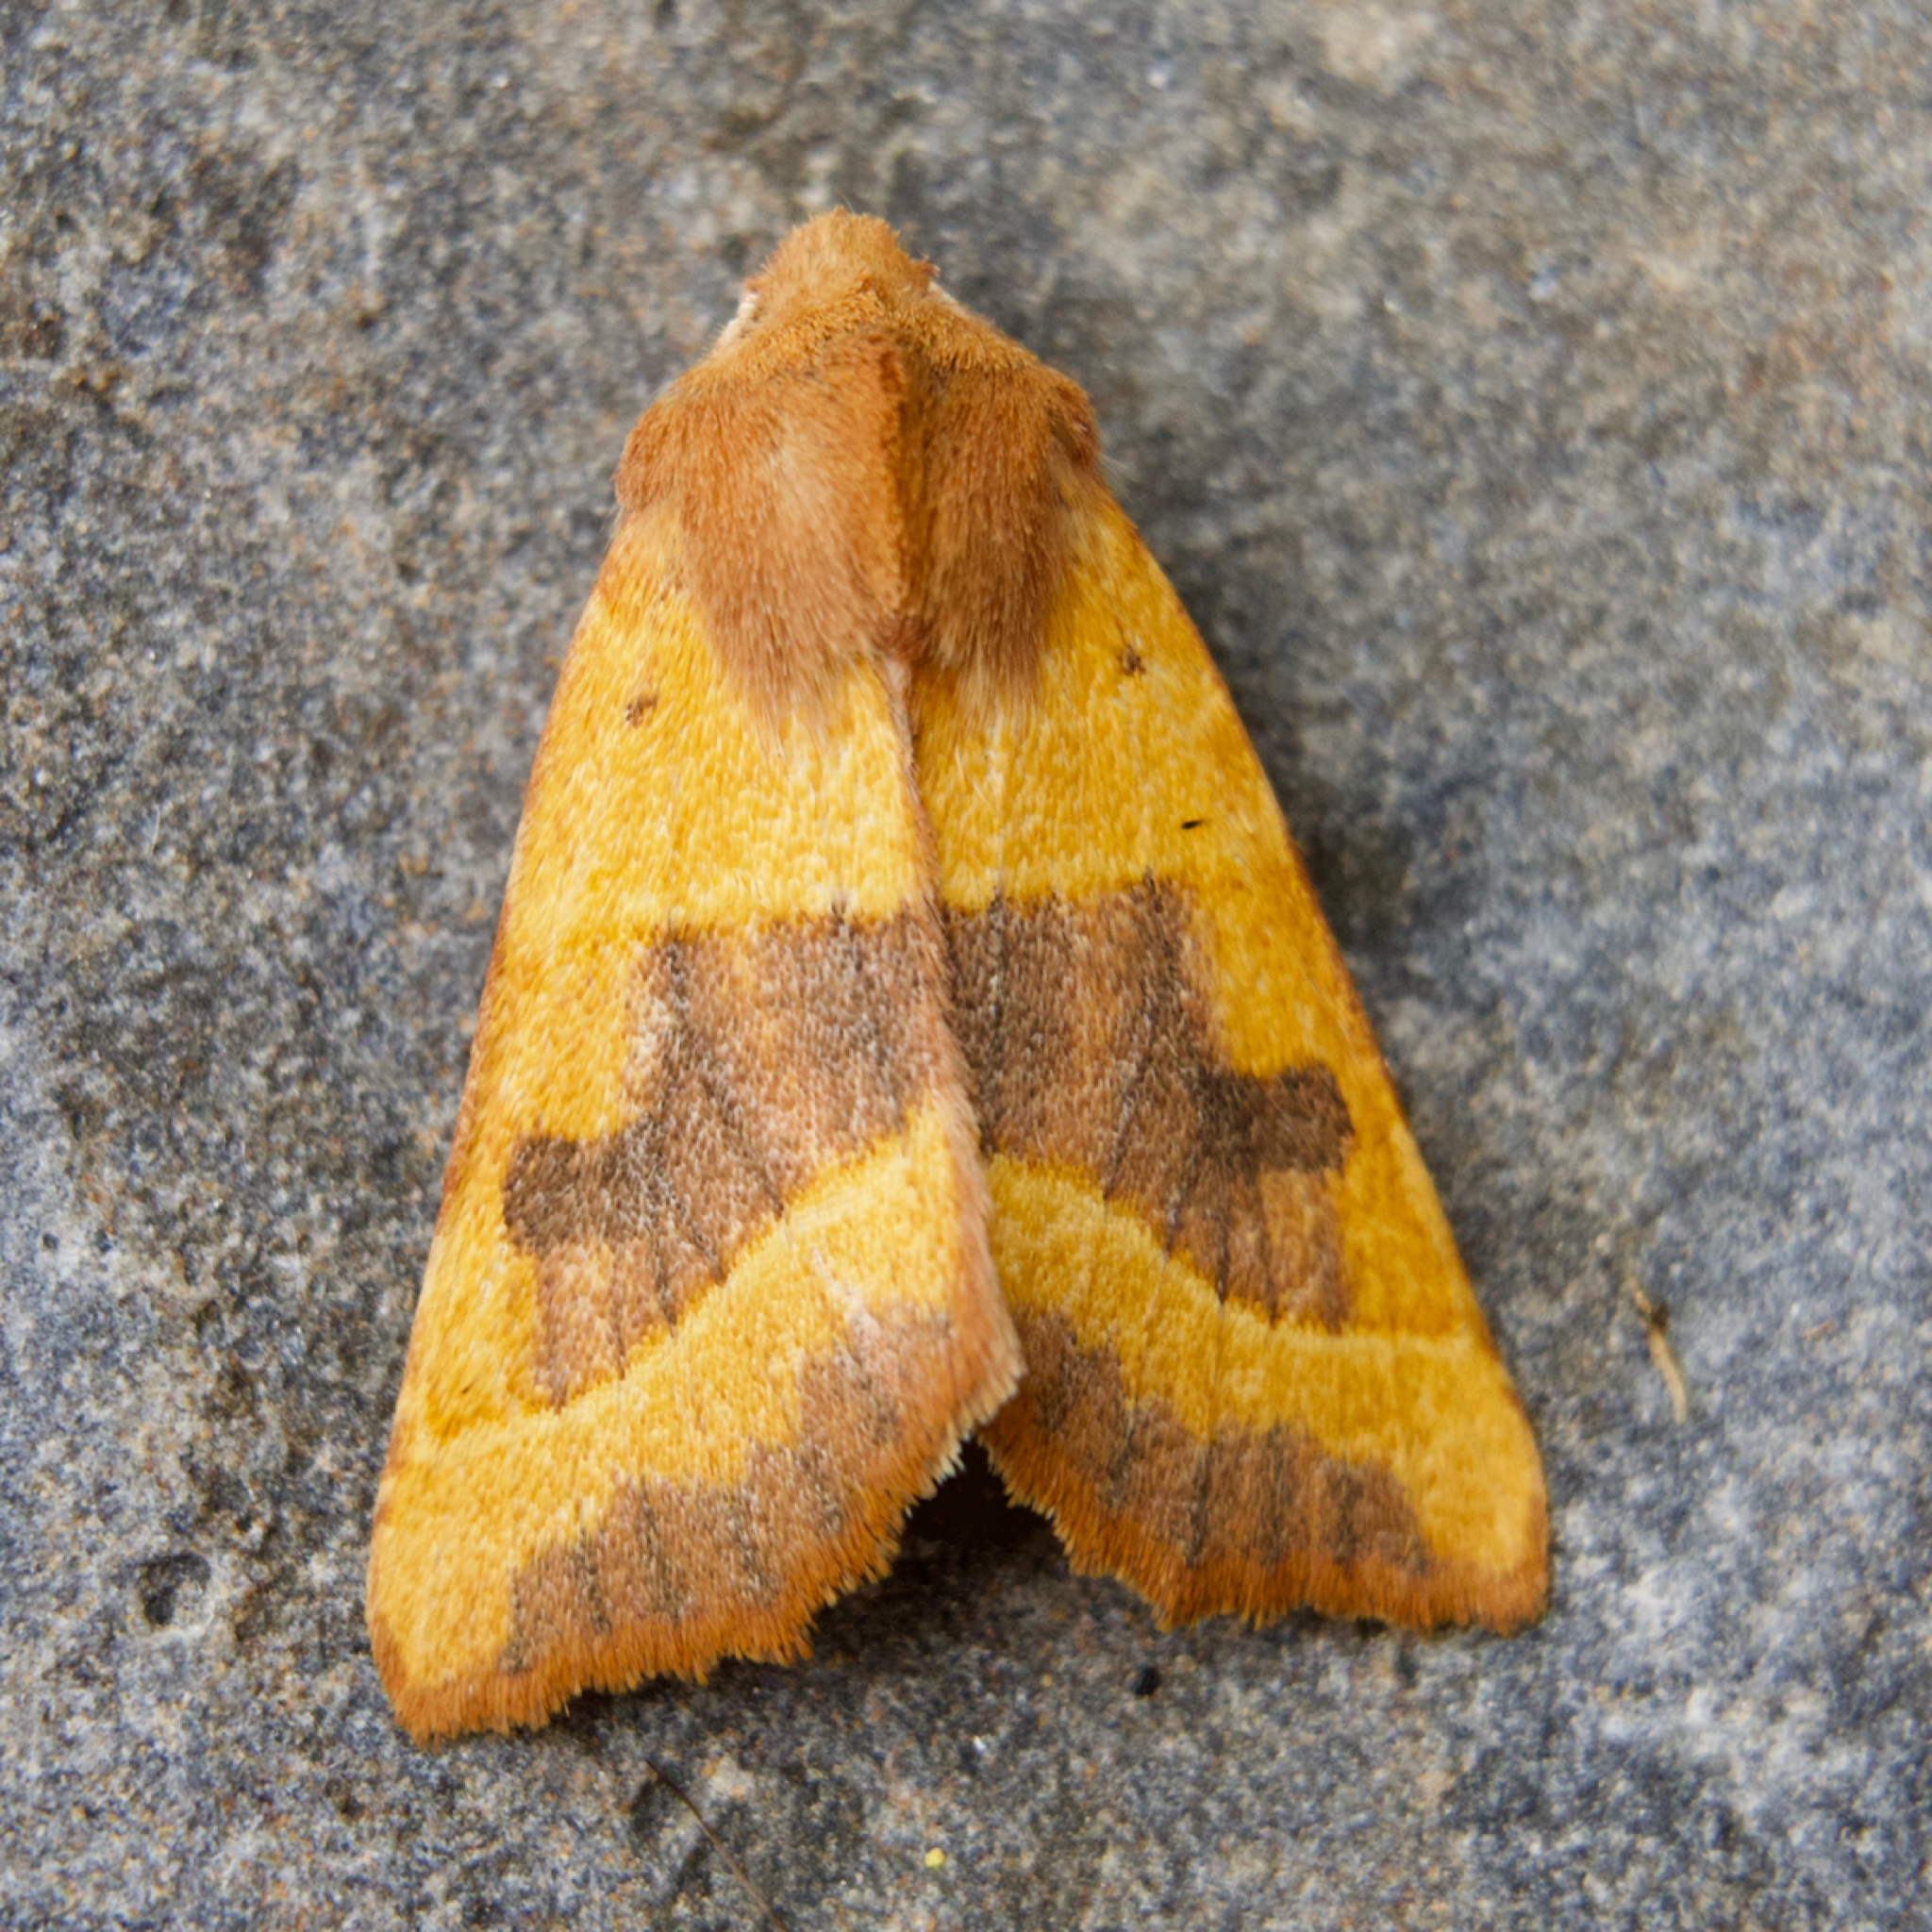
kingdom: Animalia
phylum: Arthropoda
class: Insecta
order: Lepidoptera
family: Noctuidae
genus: Atethmia
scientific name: Atethmia centrago
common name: Centre-barred sallow
